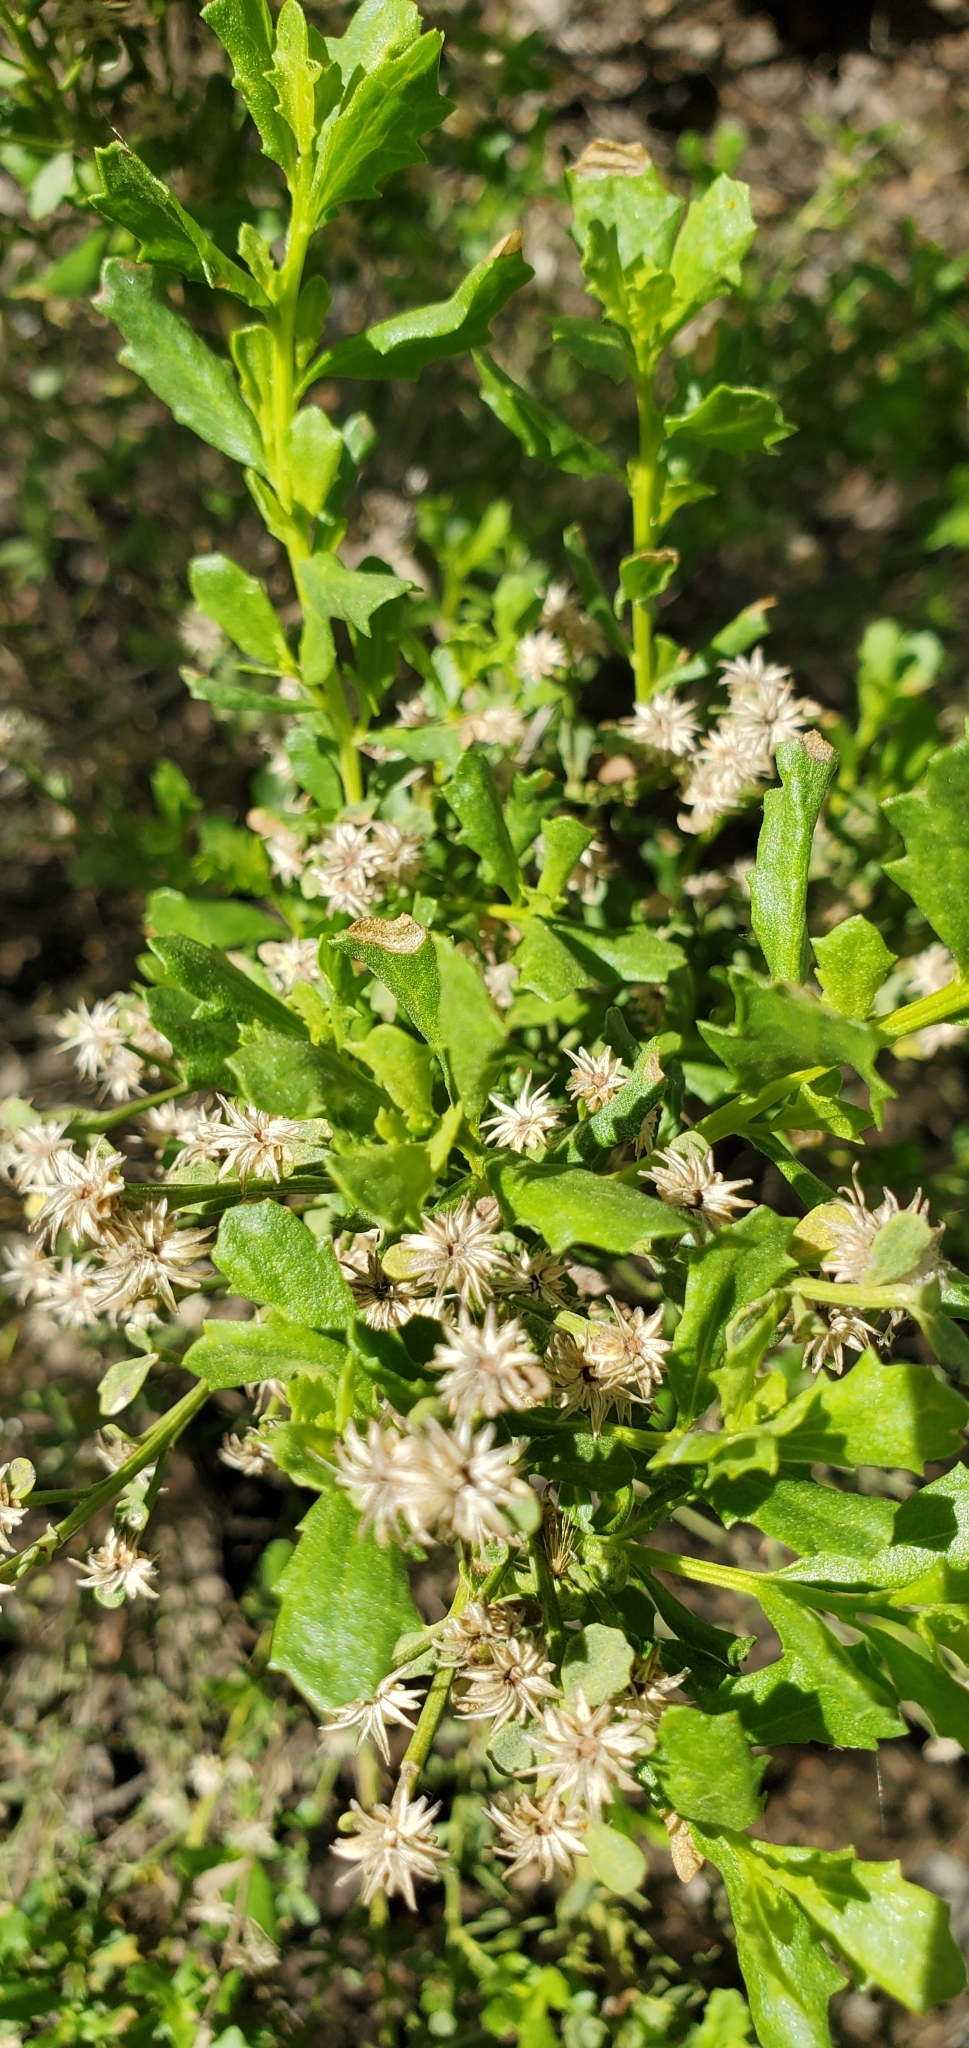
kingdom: Plantae
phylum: Tracheophyta
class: Magnoliopsida
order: Asterales
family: Asteraceae
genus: Baccharis
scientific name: Baccharis pilularis
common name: Coyotebrush
